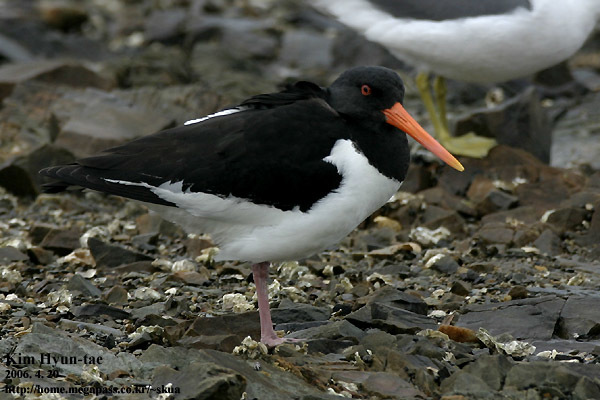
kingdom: Animalia
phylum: Chordata
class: Aves
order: Charadriiformes
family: Haematopodidae
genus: Haematopus
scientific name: Haematopus ostralegus
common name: Eurasian oystercatcher
